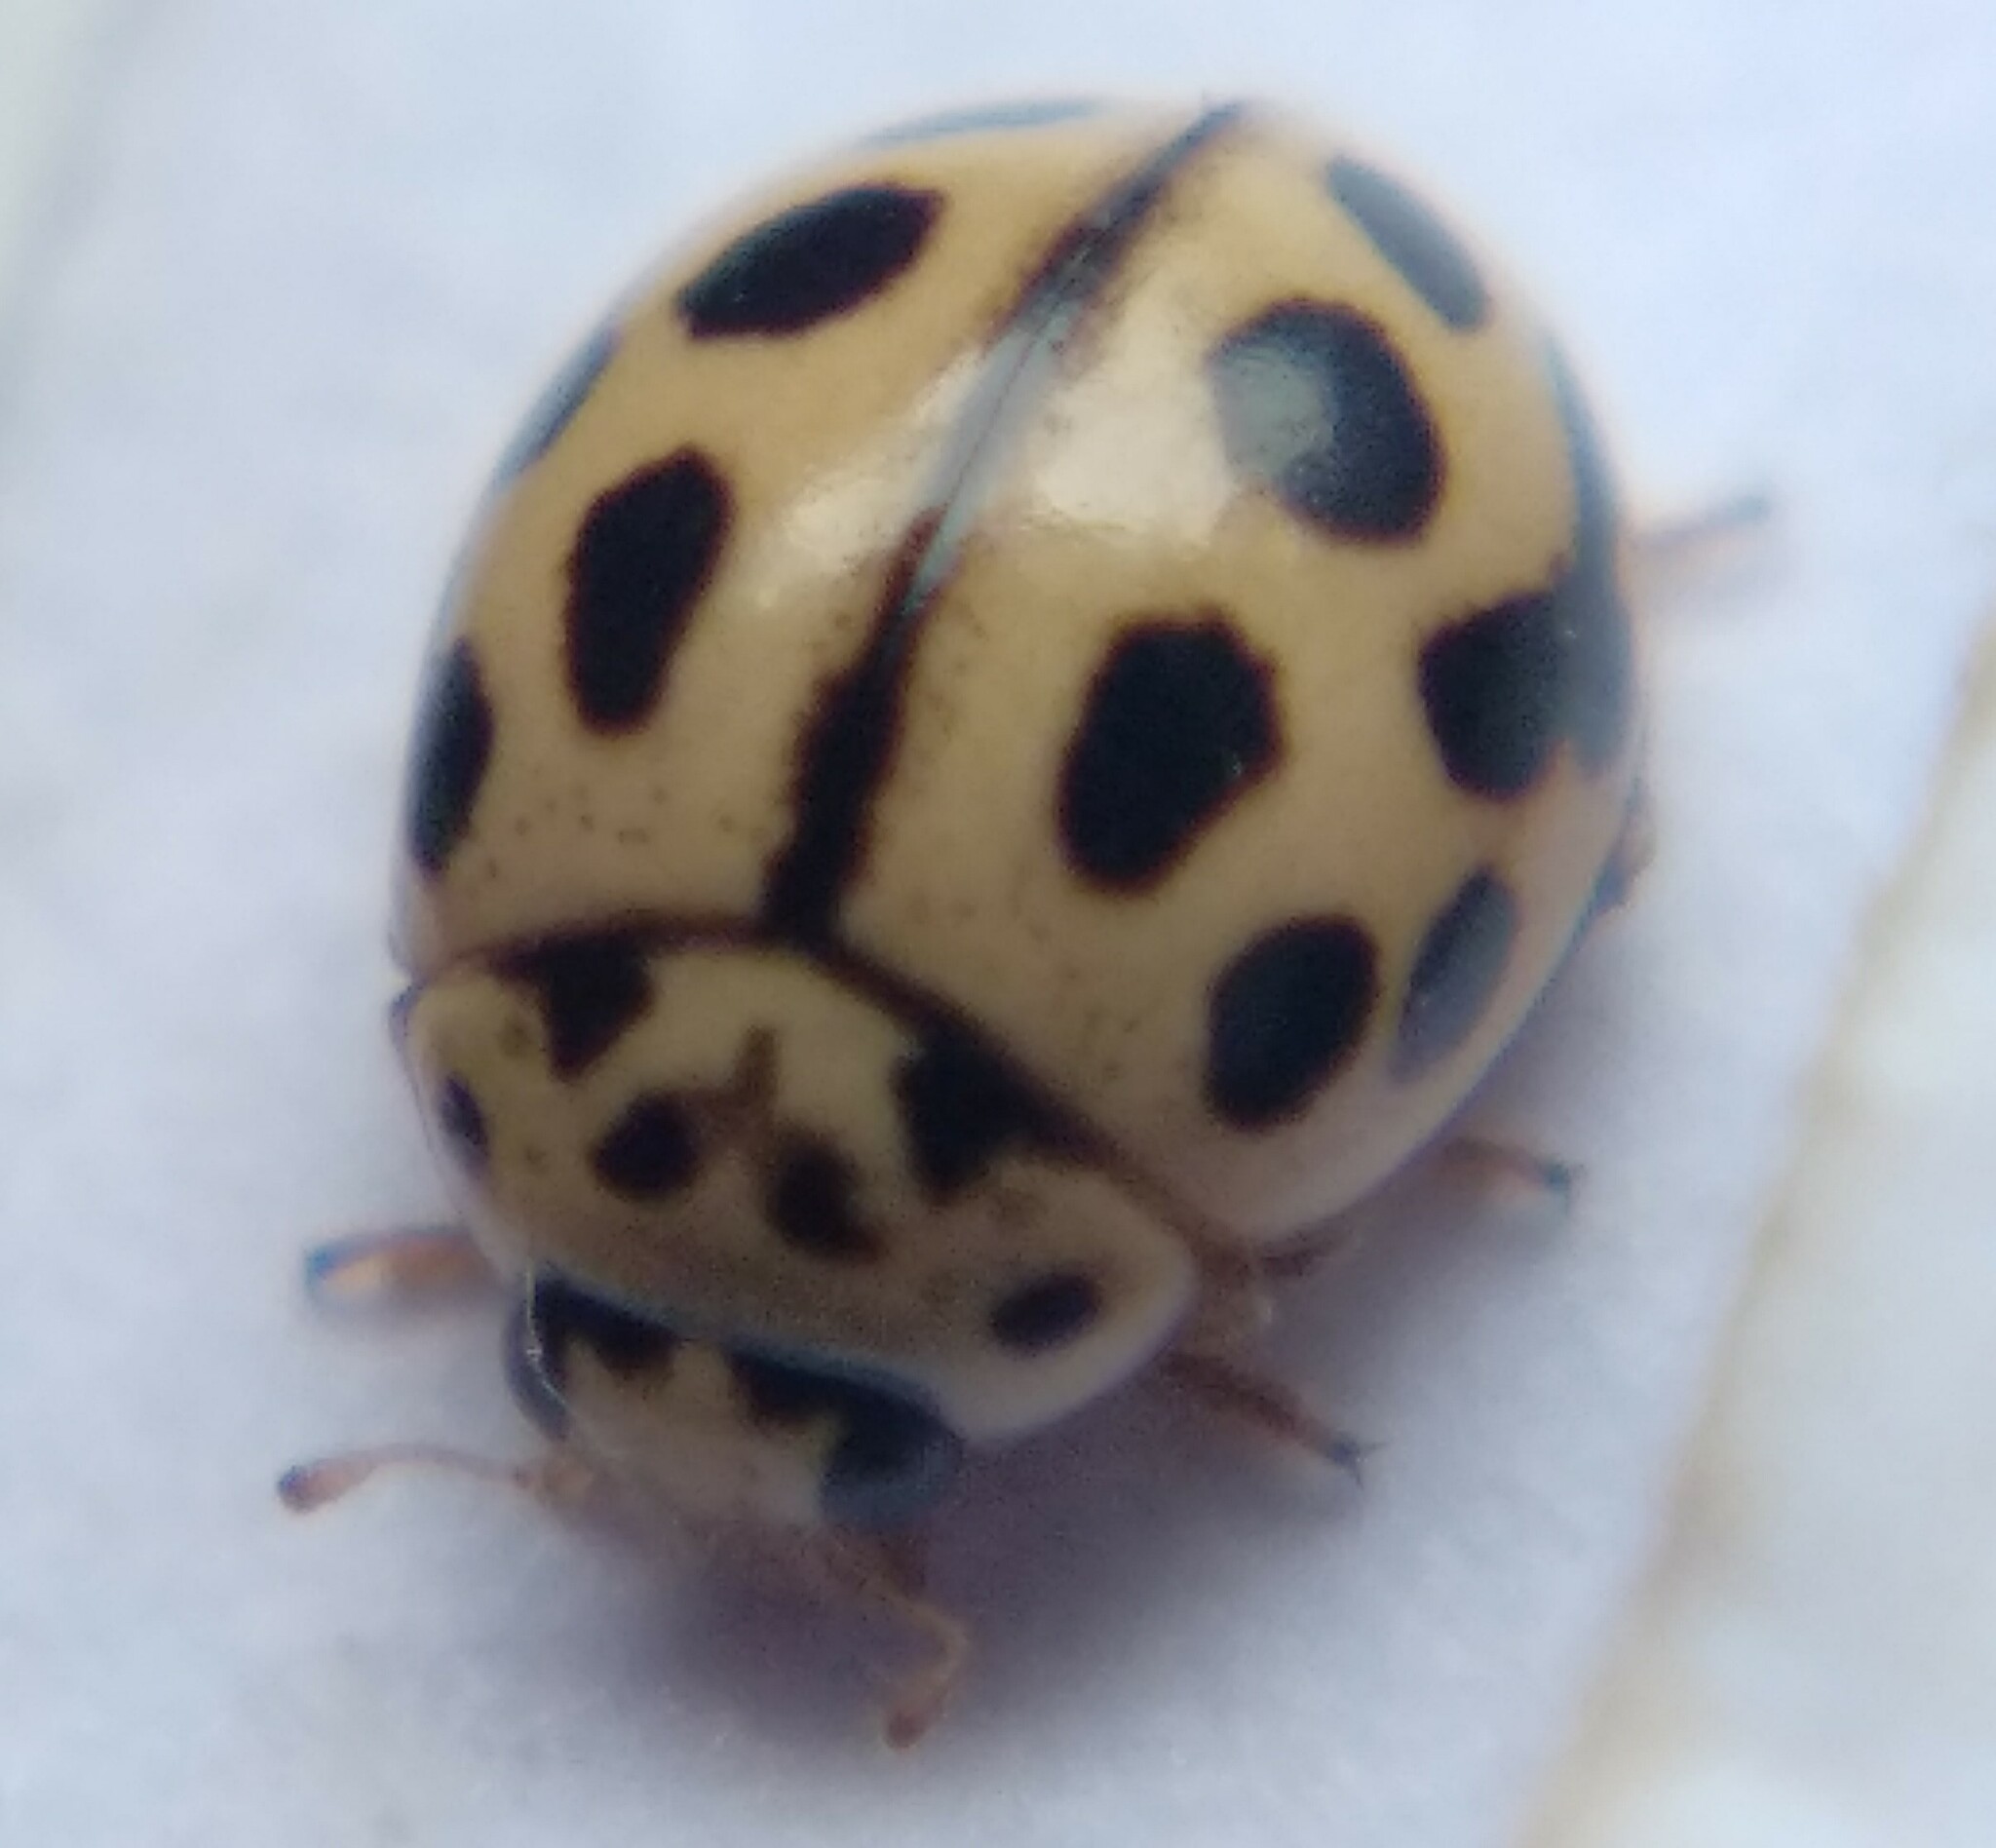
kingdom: Animalia
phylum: Arthropoda
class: Insecta
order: Coleoptera
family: Coccinellidae
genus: Tytthaspis
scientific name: Tytthaspis sedecimpunctata
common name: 16-spot ladybird
